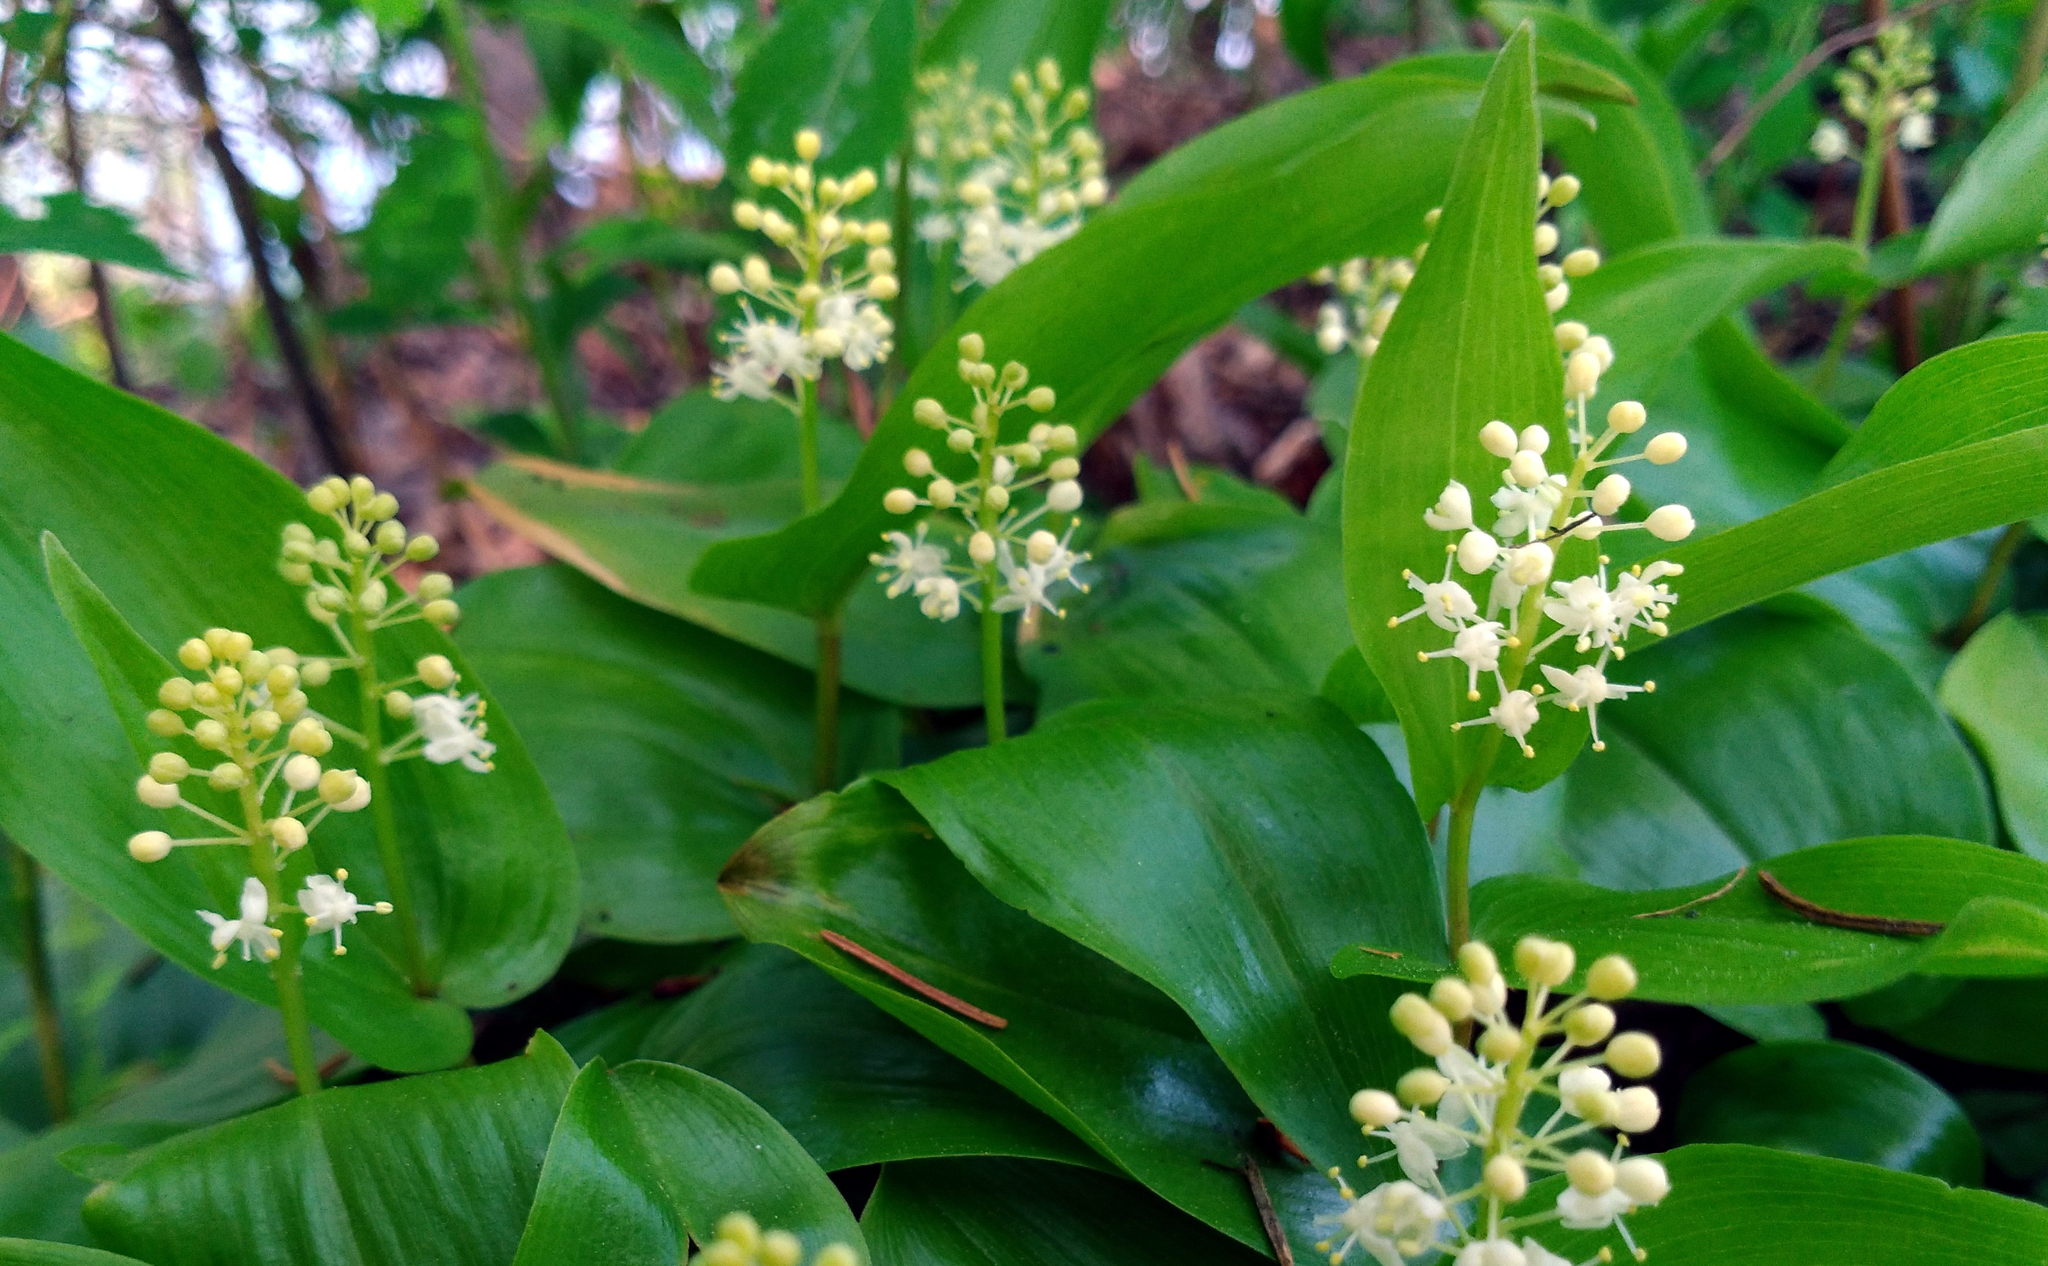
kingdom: Plantae
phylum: Tracheophyta
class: Liliopsida
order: Asparagales
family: Asparagaceae
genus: Maianthemum
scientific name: Maianthemum canadense
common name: False lily-of-the-valley
